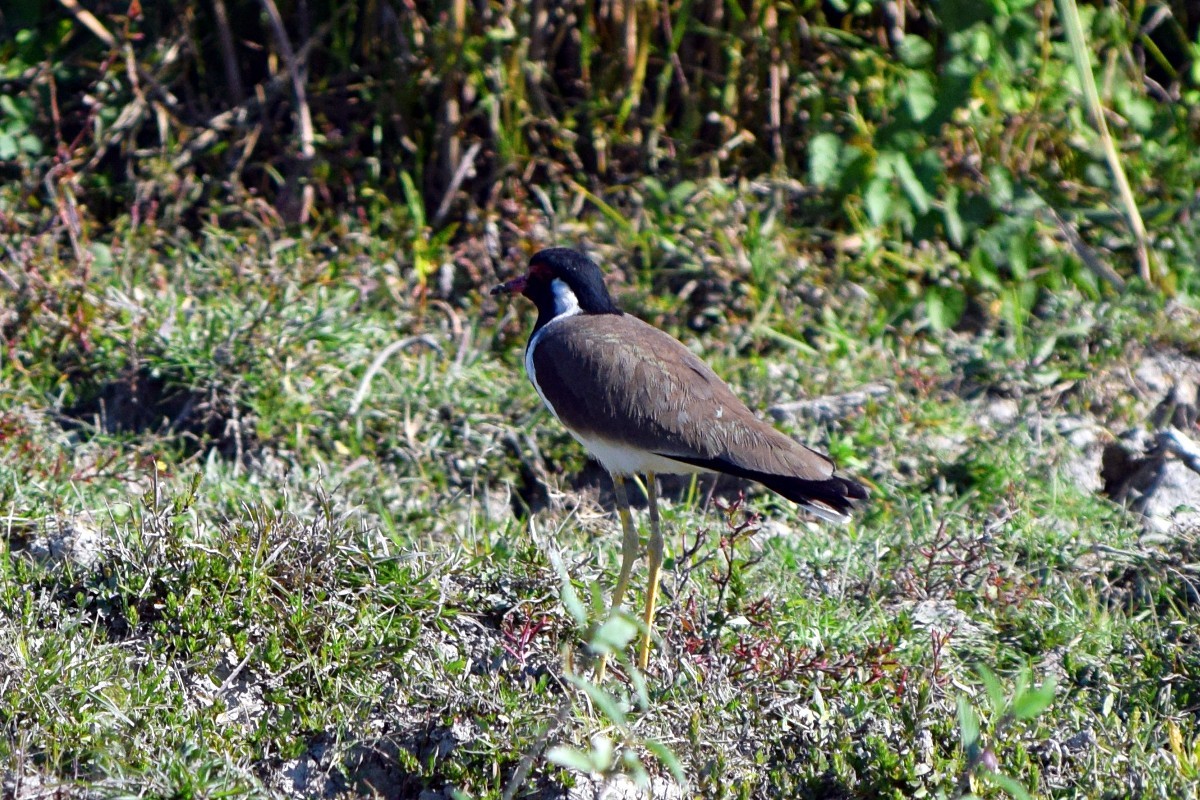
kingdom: Animalia
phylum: Chordata
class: Aves
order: Charadriiformes
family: Charadriidae
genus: Vanellus
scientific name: Vanellus indicus
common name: Red-wattled lapwing
